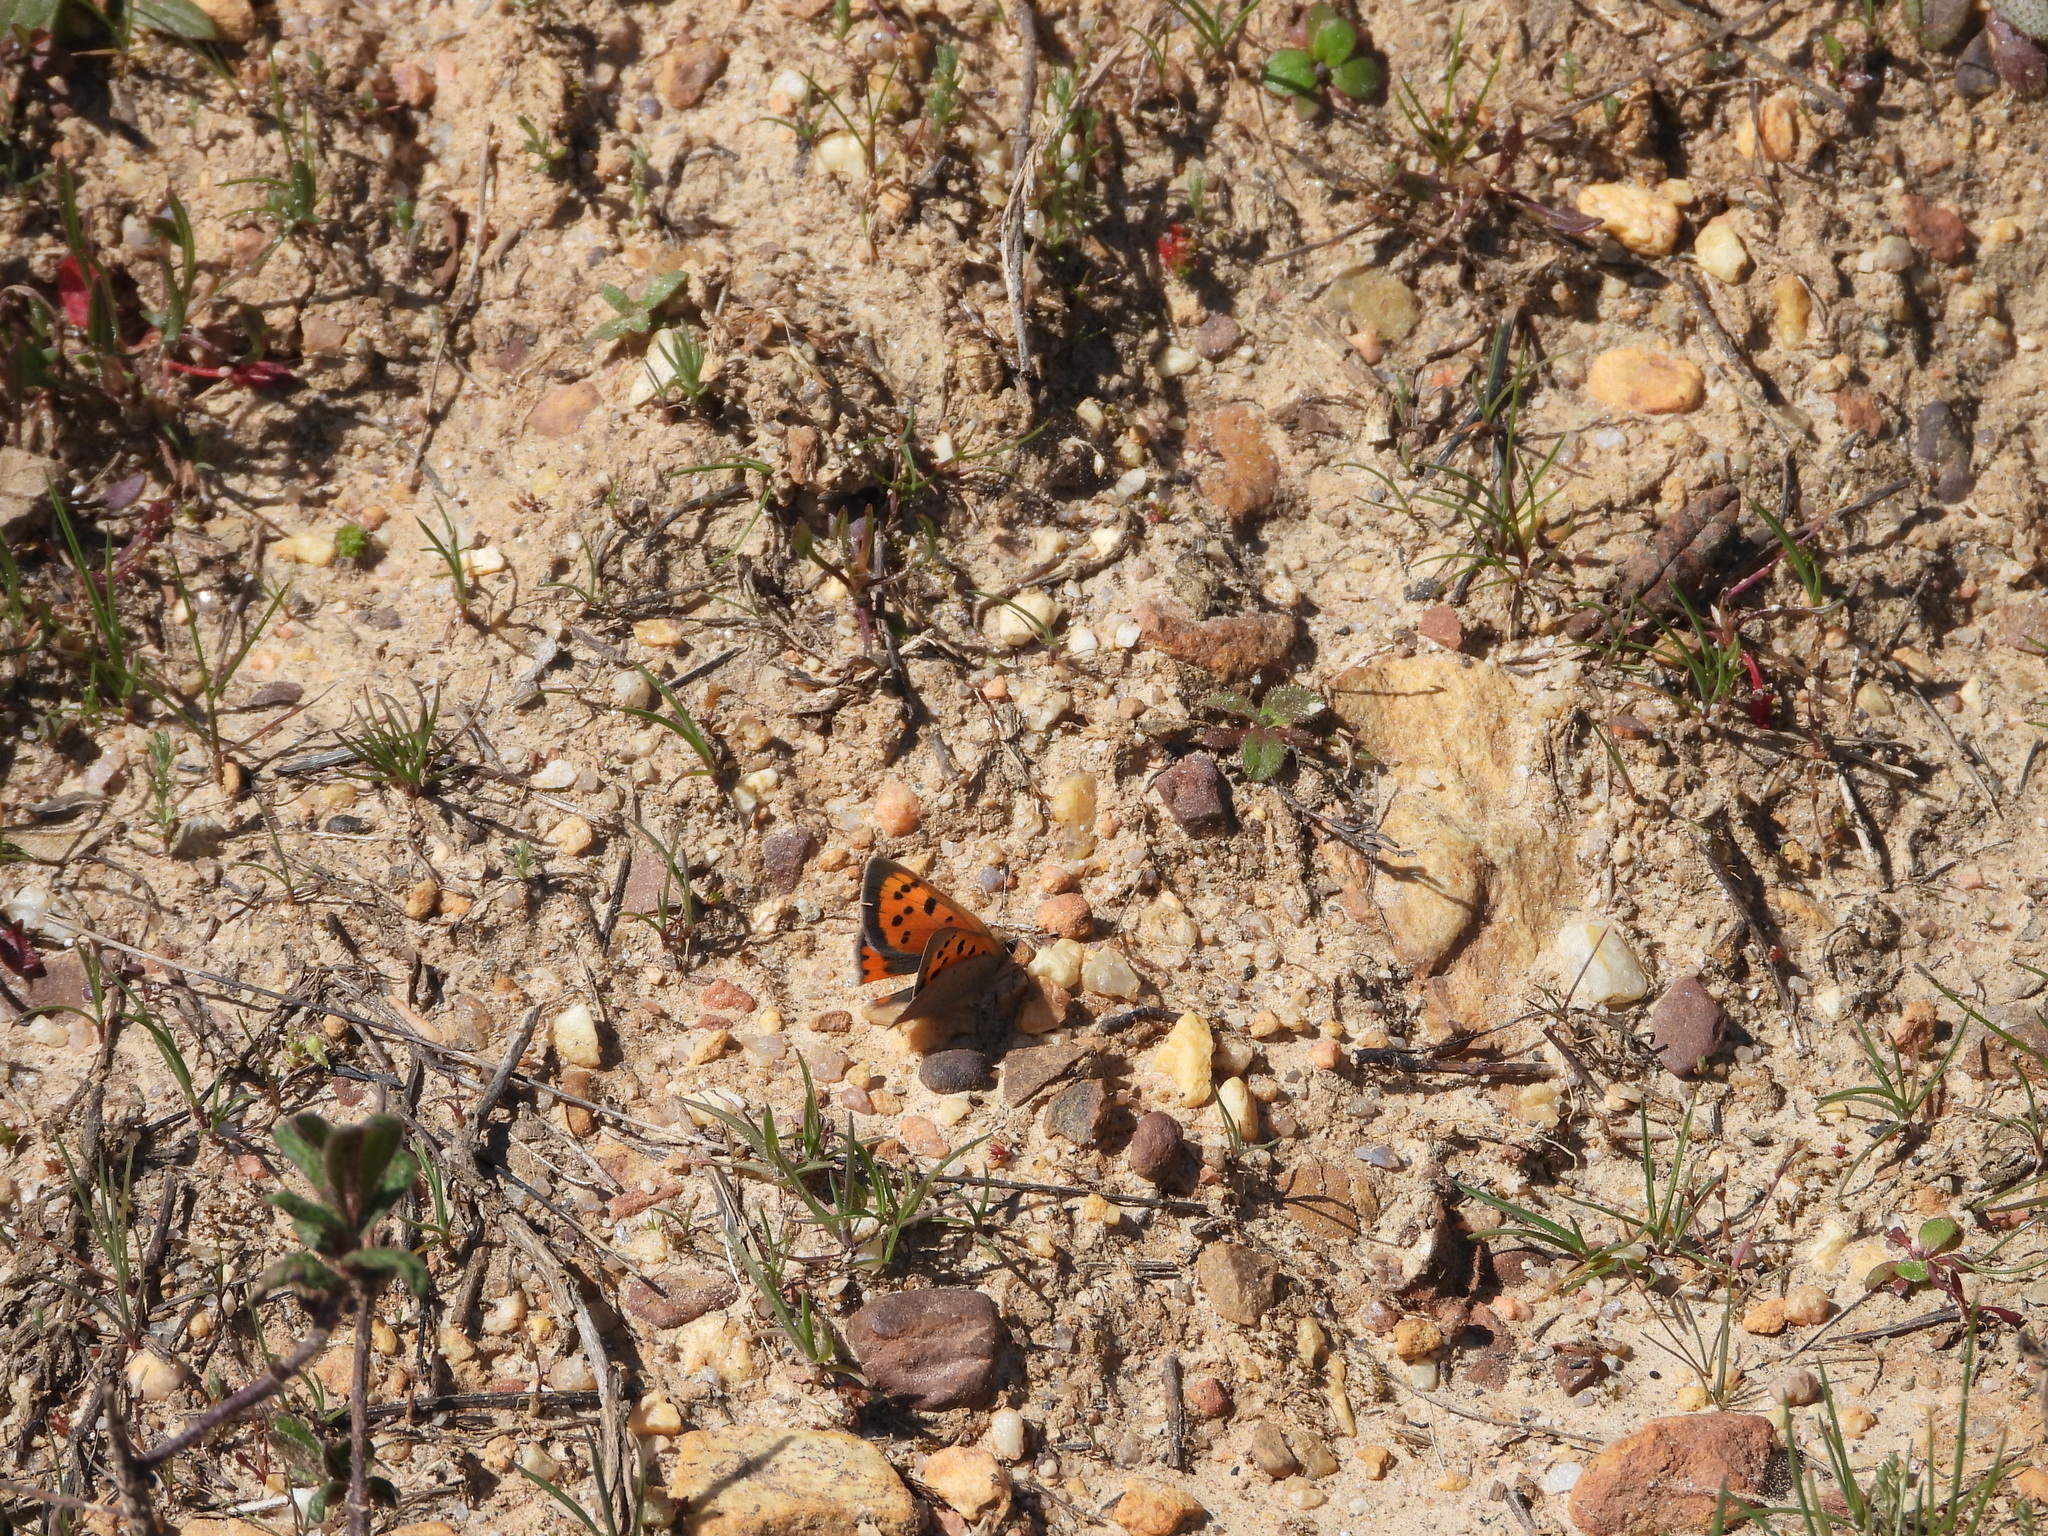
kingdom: Animalia
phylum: Arthropoda
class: Insecta
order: Lepidoptera
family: Lycaenidae
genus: Lycaena
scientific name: Lycaena phlaeas
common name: Small copper
